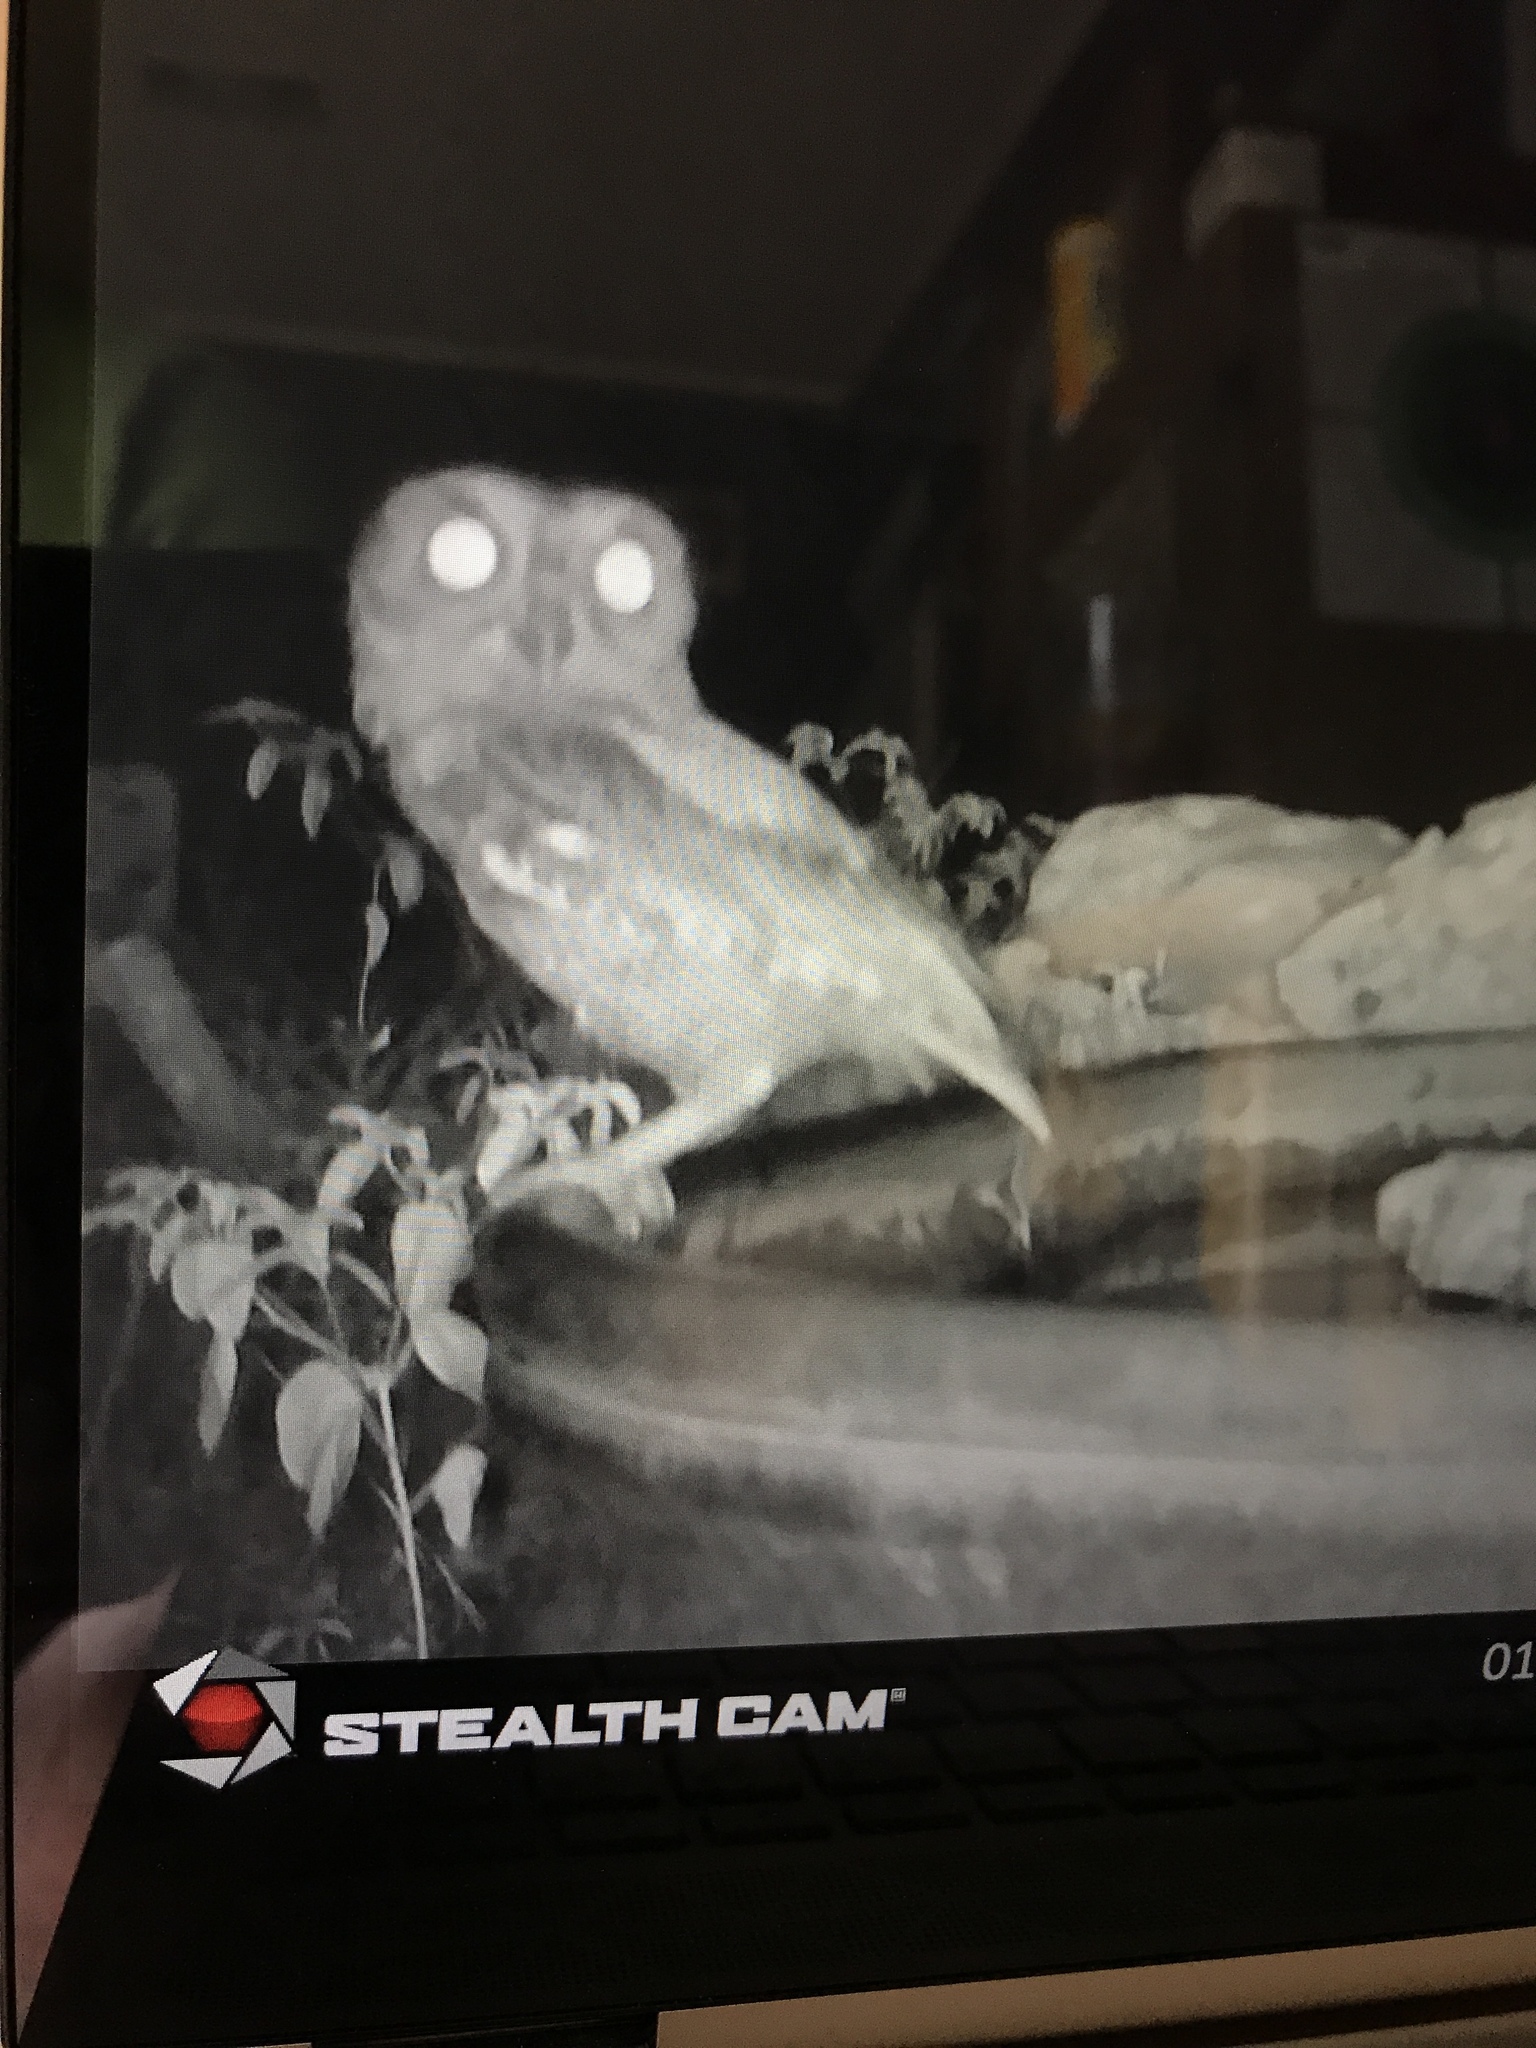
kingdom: Animalia
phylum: Chordata
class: Aves
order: Strigiformes
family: Strigidae
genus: Megascops
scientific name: Megascops asio
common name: Eastern screech-owl
